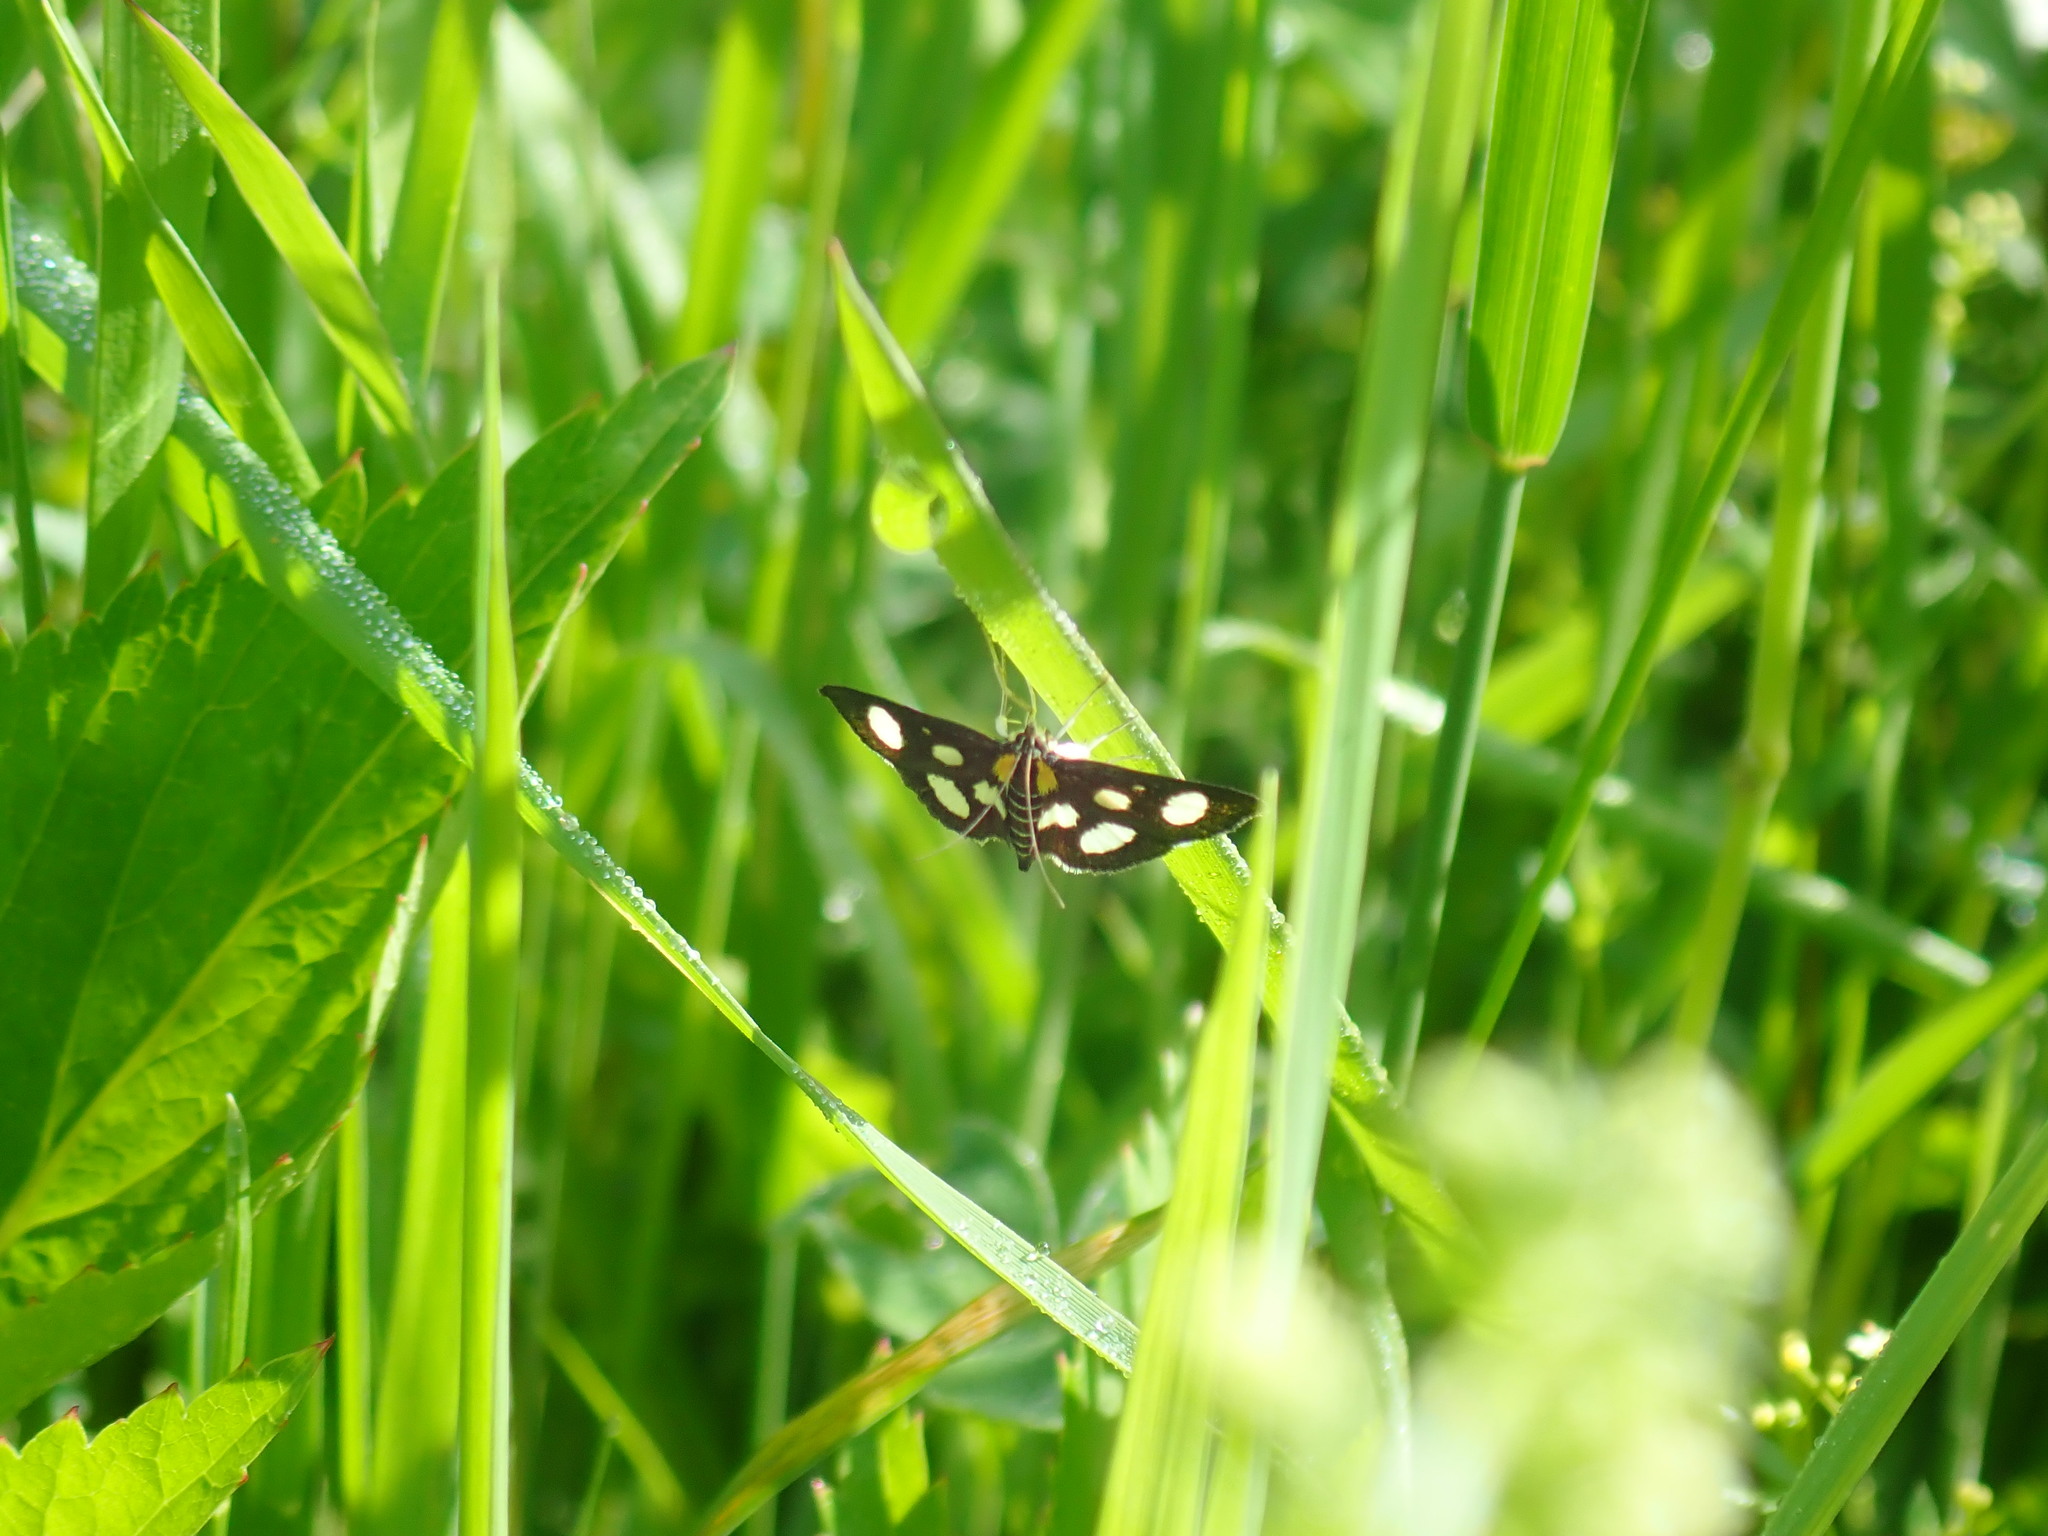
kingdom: Animalia
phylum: Arthropoda
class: Insecta
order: Lepidoptera
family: Crambidae
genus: Anania
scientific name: Anania funebris
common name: White-spotted sable moth
